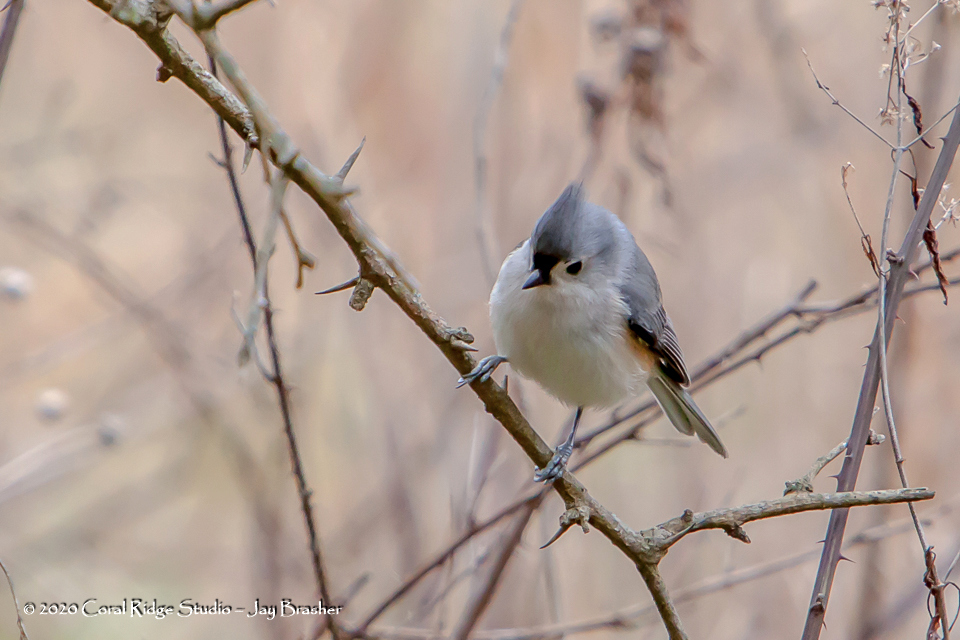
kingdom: Animalia
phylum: Chordata
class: Aves
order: Passeriformes
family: Paridae
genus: Baeolophus
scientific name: Baeolophus bicolor
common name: Tufted titmouse
